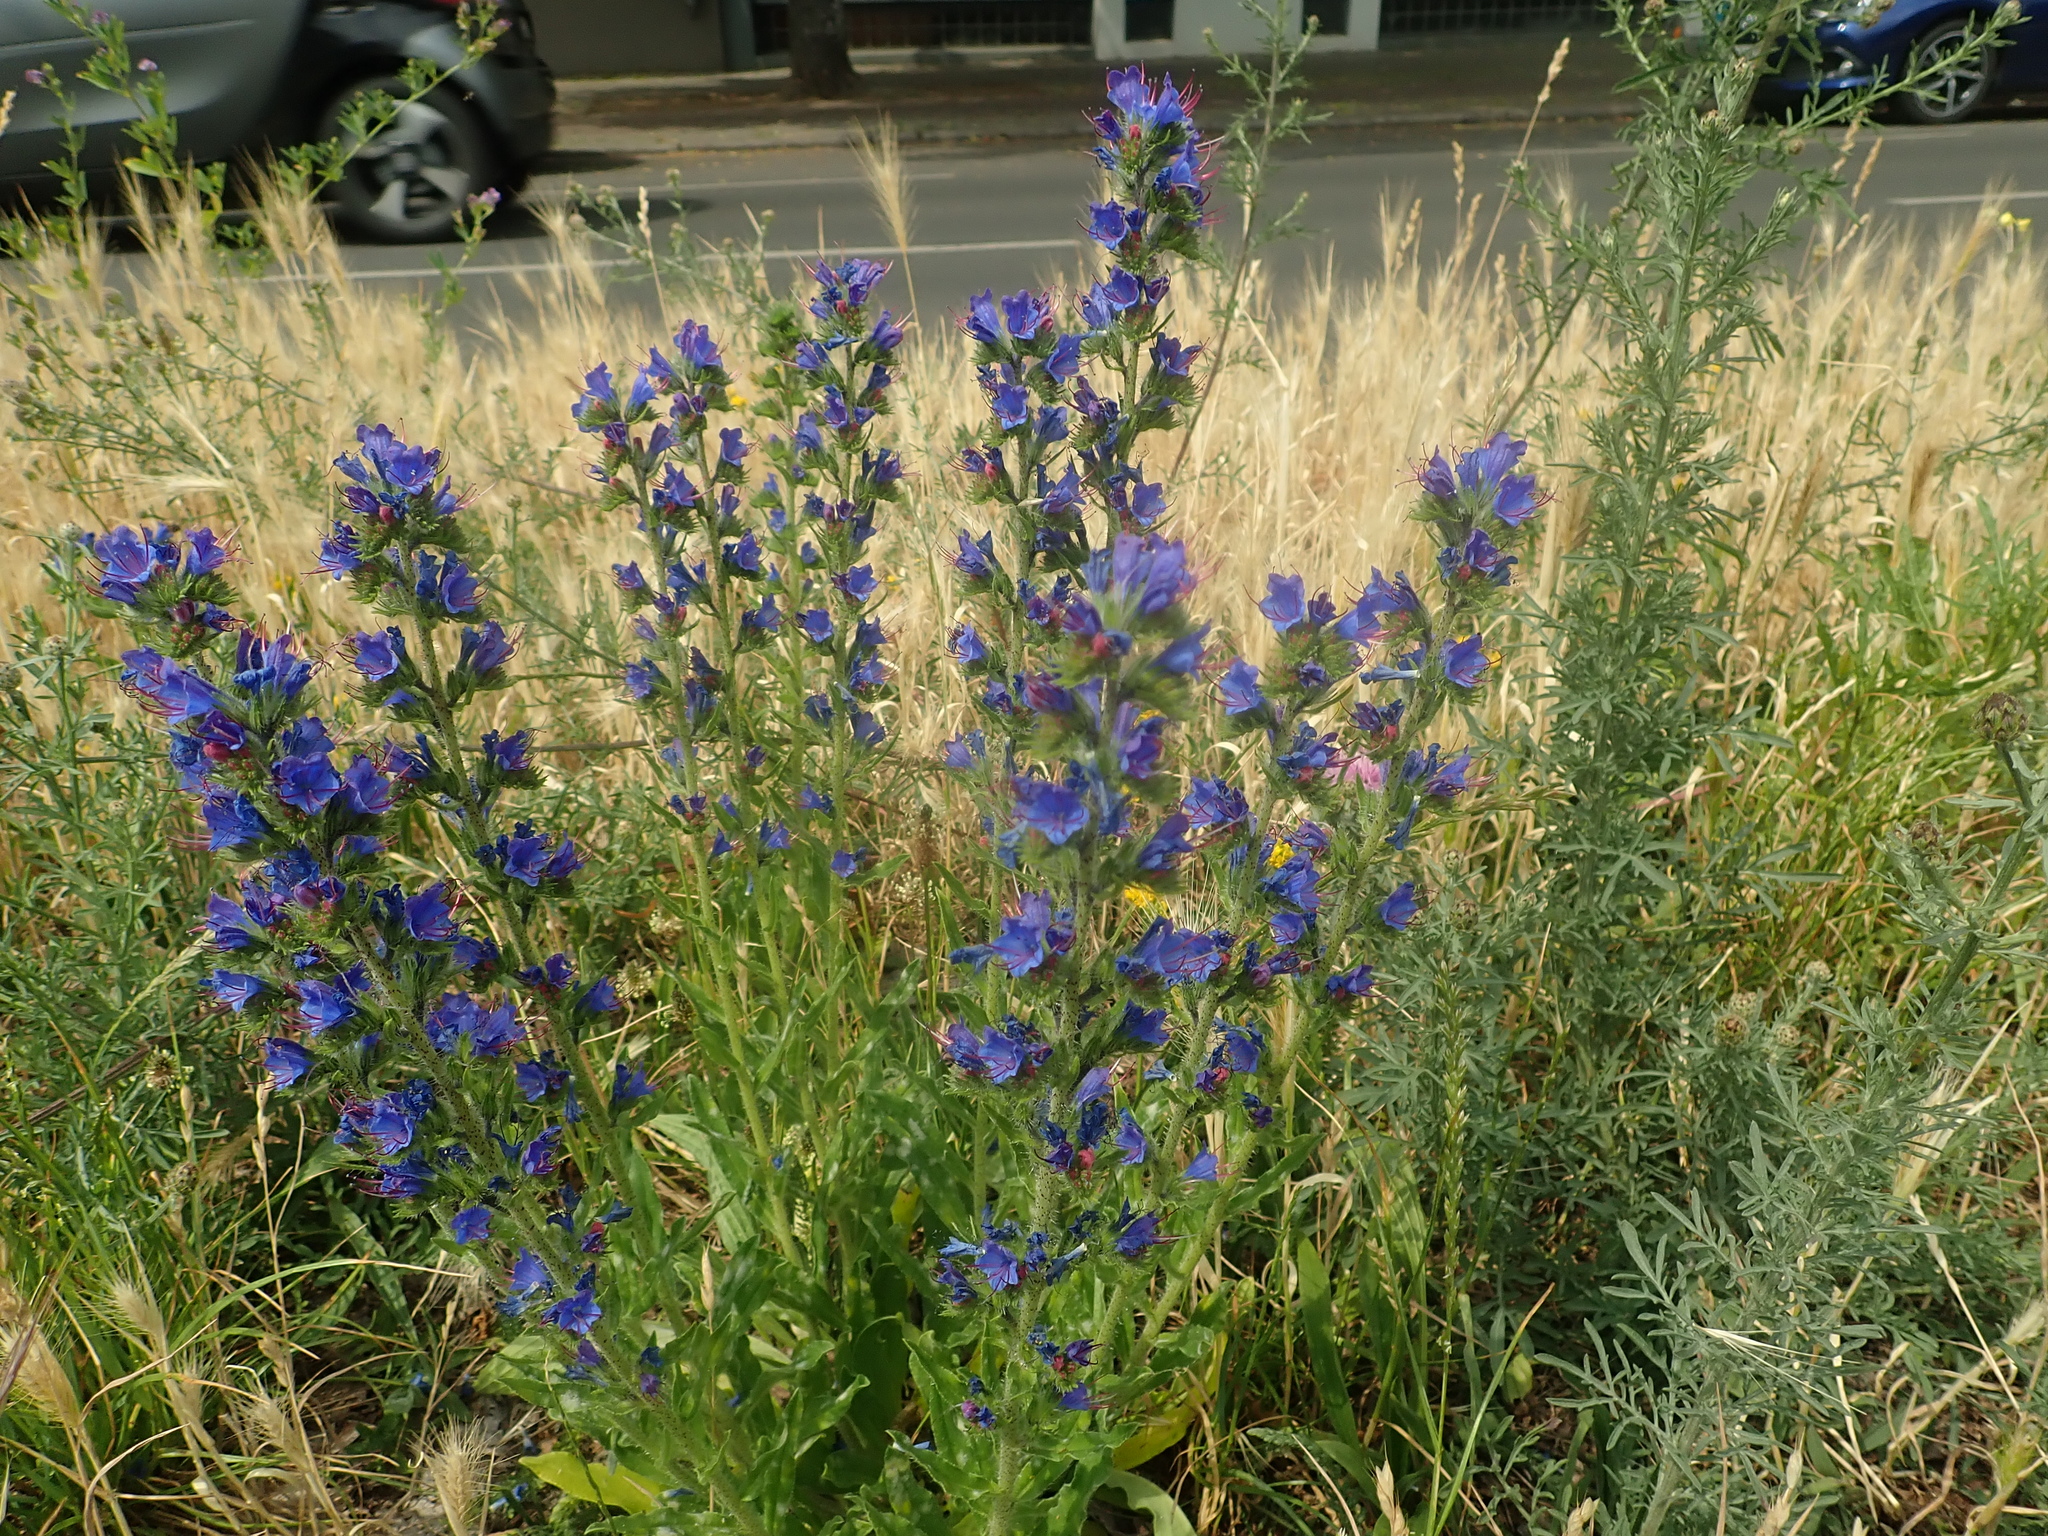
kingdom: Plantae
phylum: Tracheophyta
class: Magnoliopsida
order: Boraginales
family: Boraginaceae
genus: Echium
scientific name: Echium vulgare
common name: Common viper's bugloss
